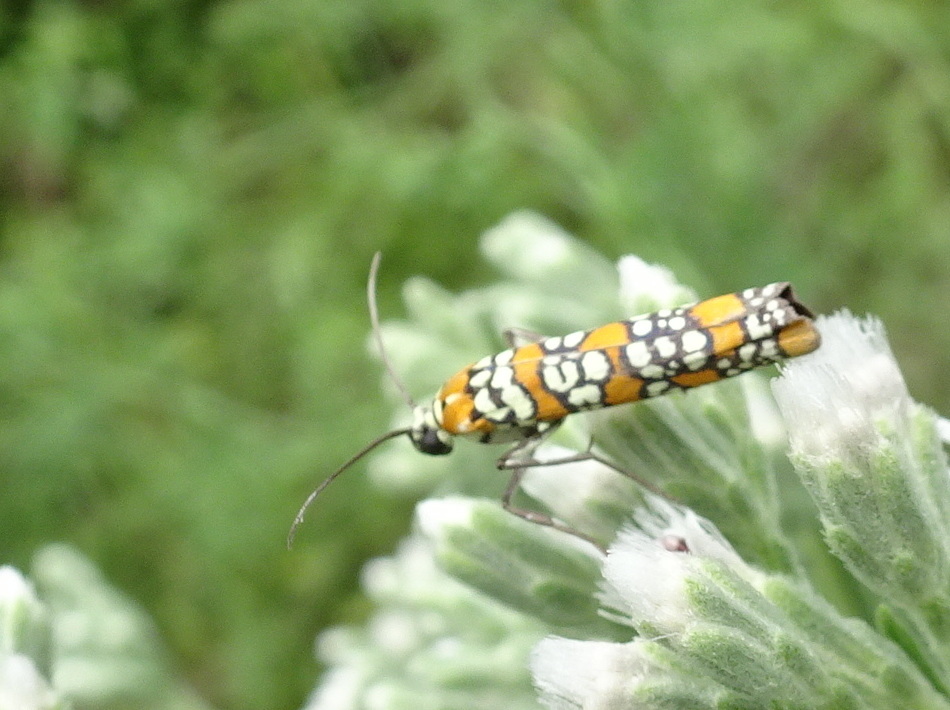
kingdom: Animalia
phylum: Arthropoda
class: Insecta
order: Lepidoptera
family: Attevidae
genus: Atteva
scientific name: Atteva punctella
